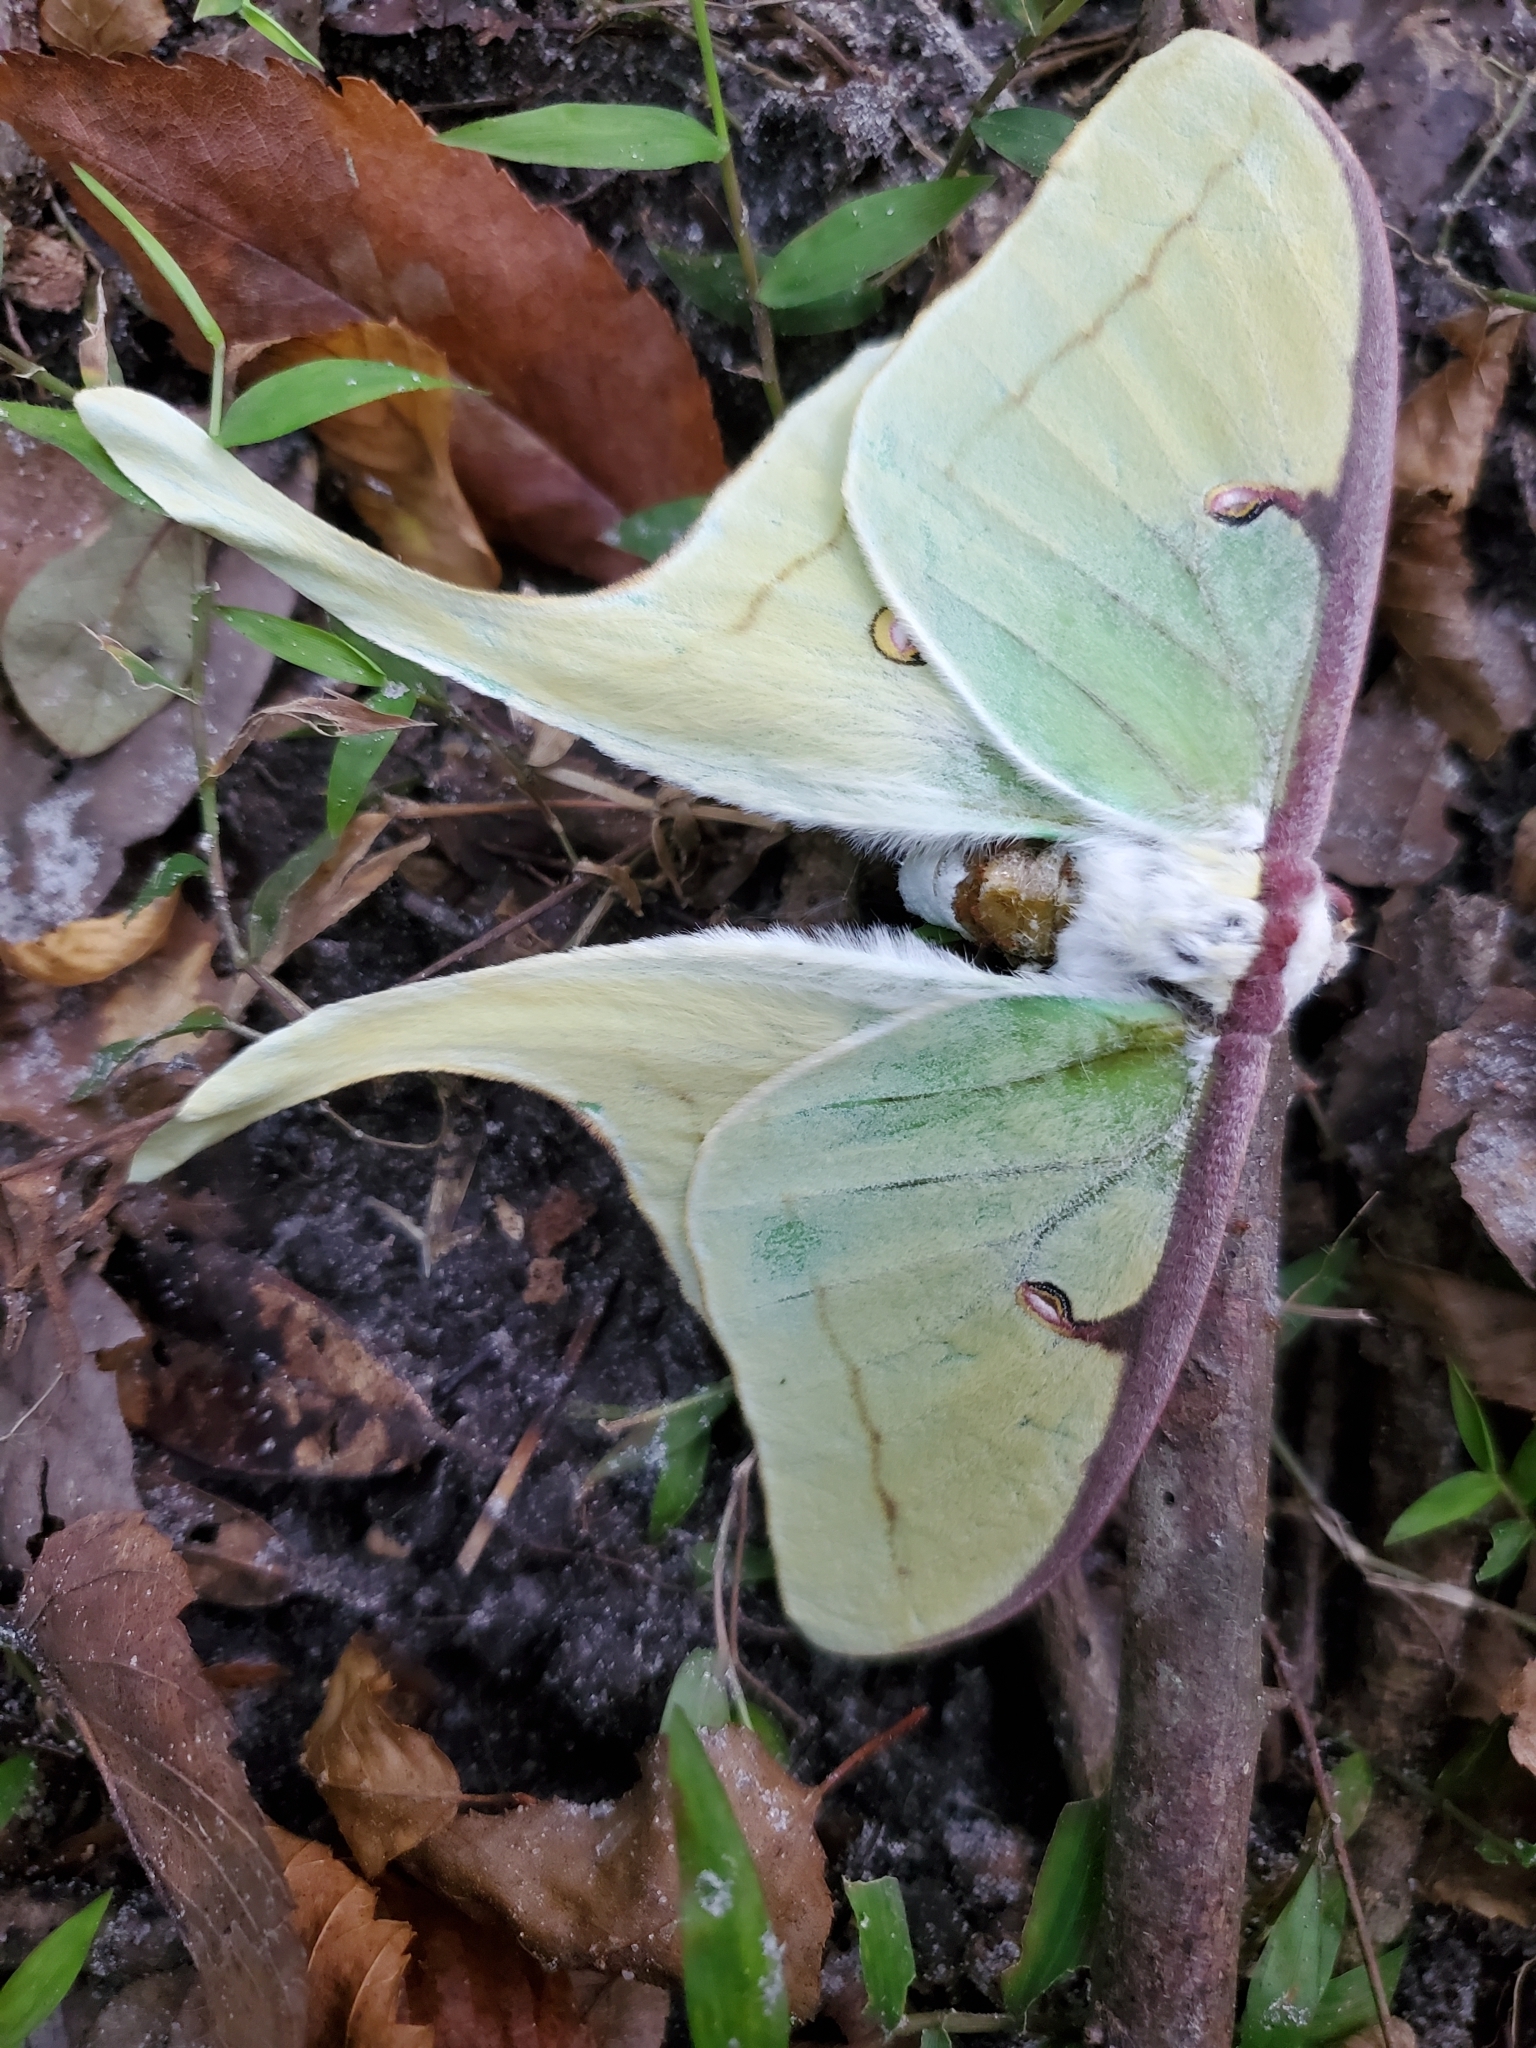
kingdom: Animalia
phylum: Arthropoda
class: Insecta
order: Lepidoptera
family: Saturniidae
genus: Actias
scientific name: Actias luna
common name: Luna moth
